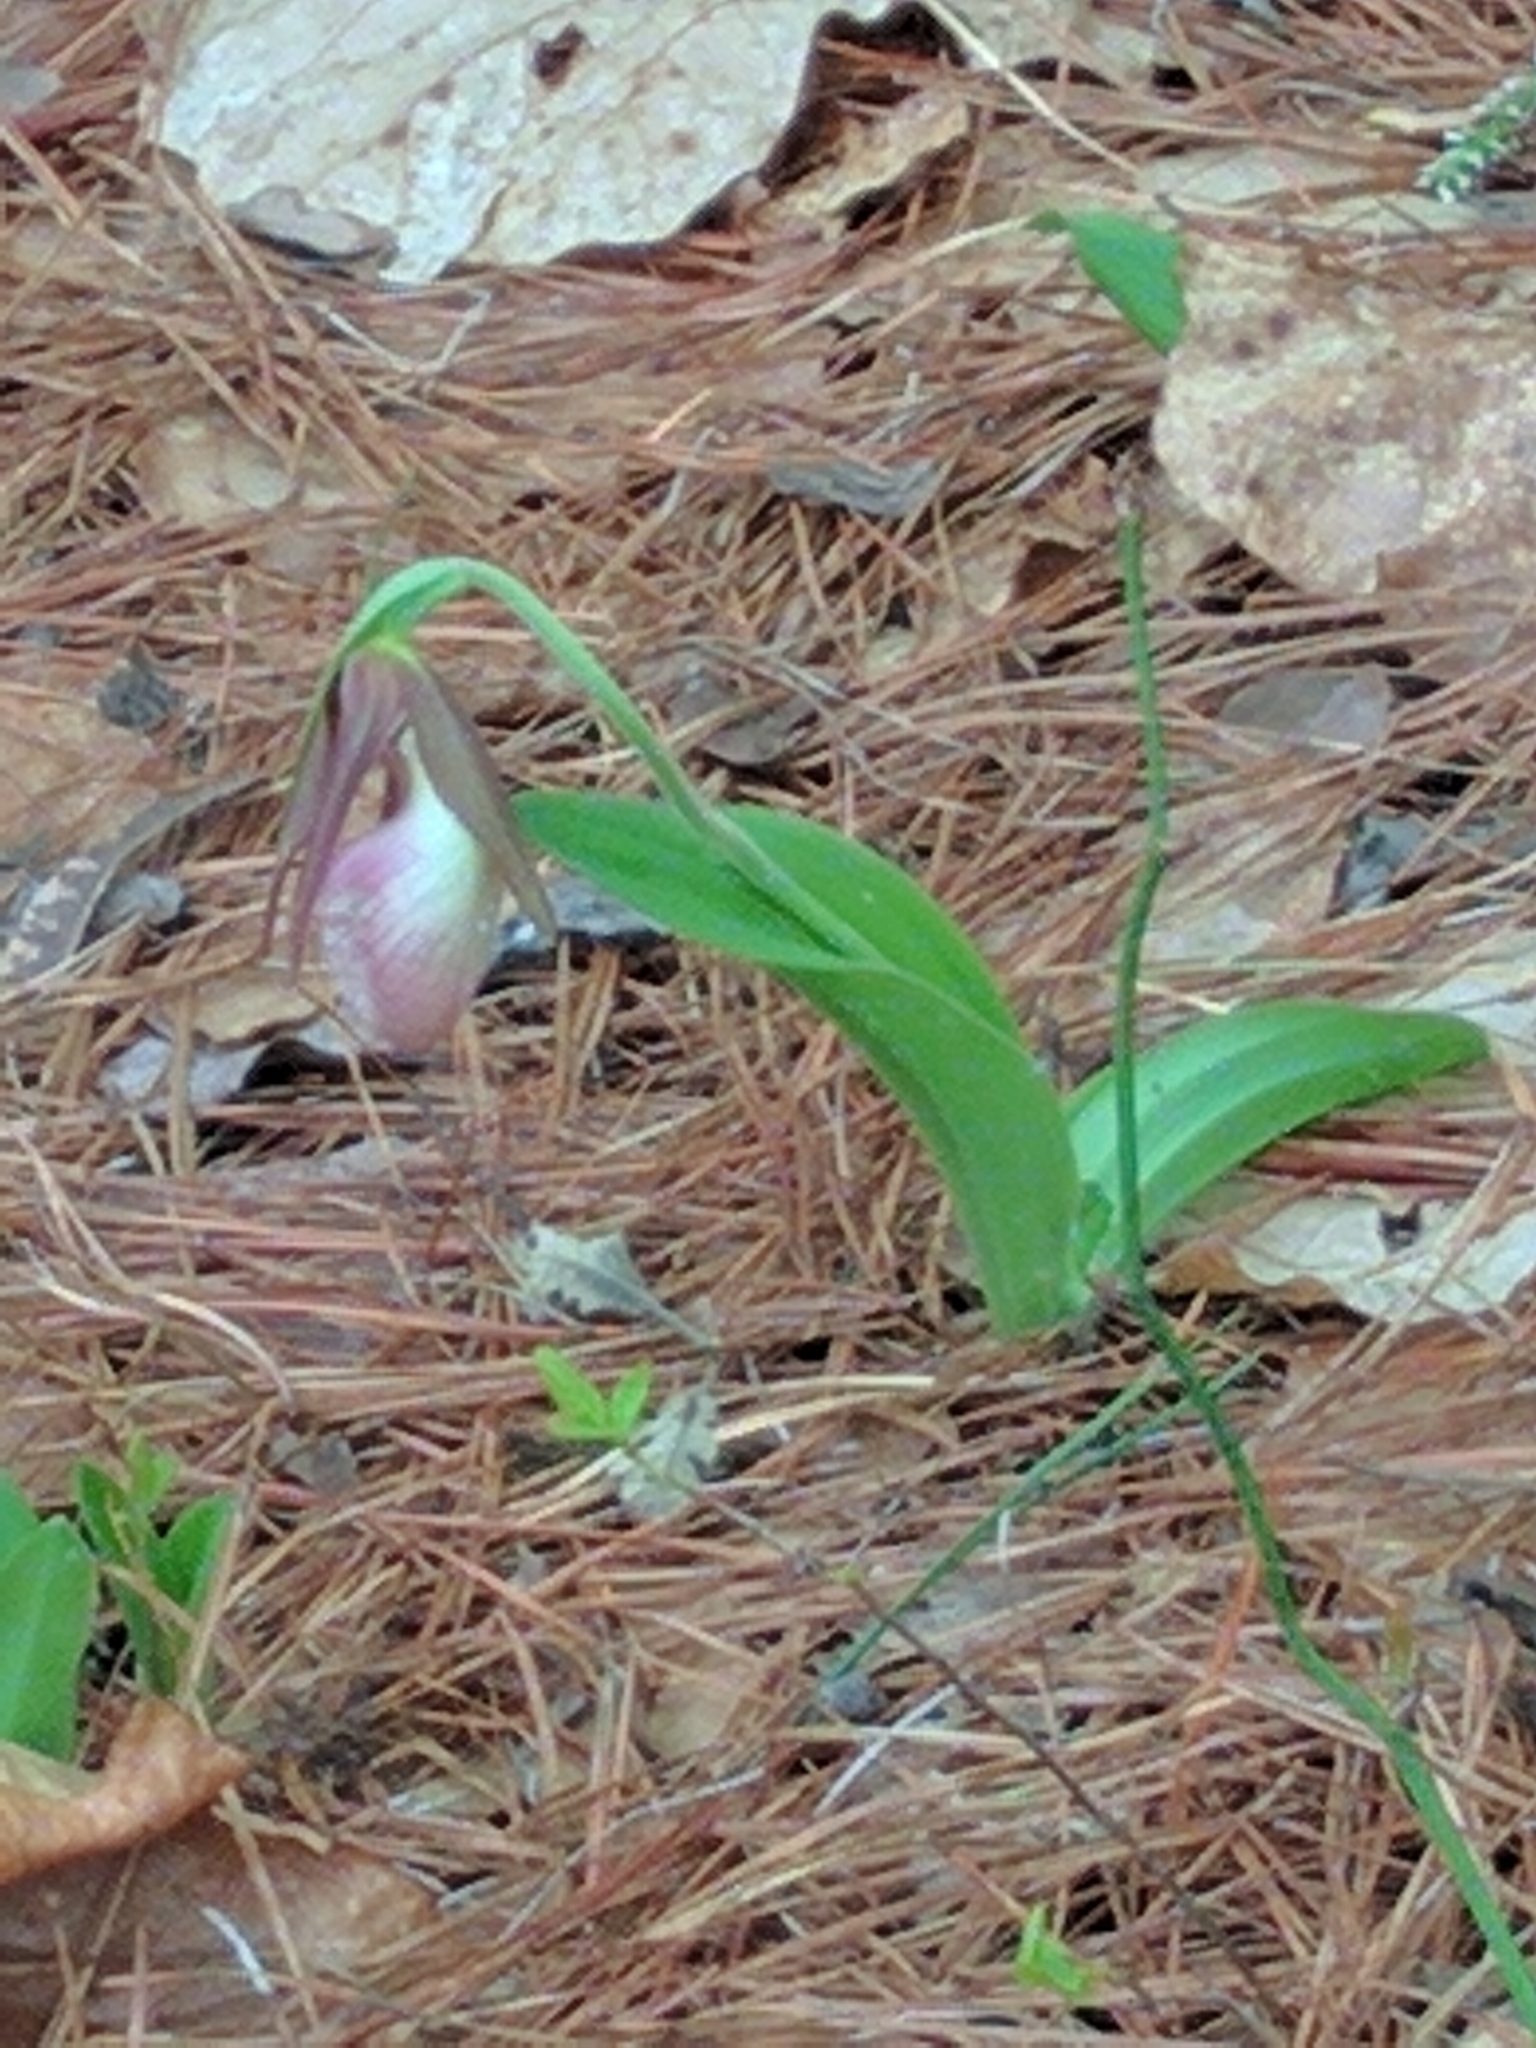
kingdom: Plantae
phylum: Tracheophyta
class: Liliopsida
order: Asparagales
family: Orchidaceae
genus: Cypripedium
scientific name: Cypripedium acaule
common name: Pink lady's-slipper
